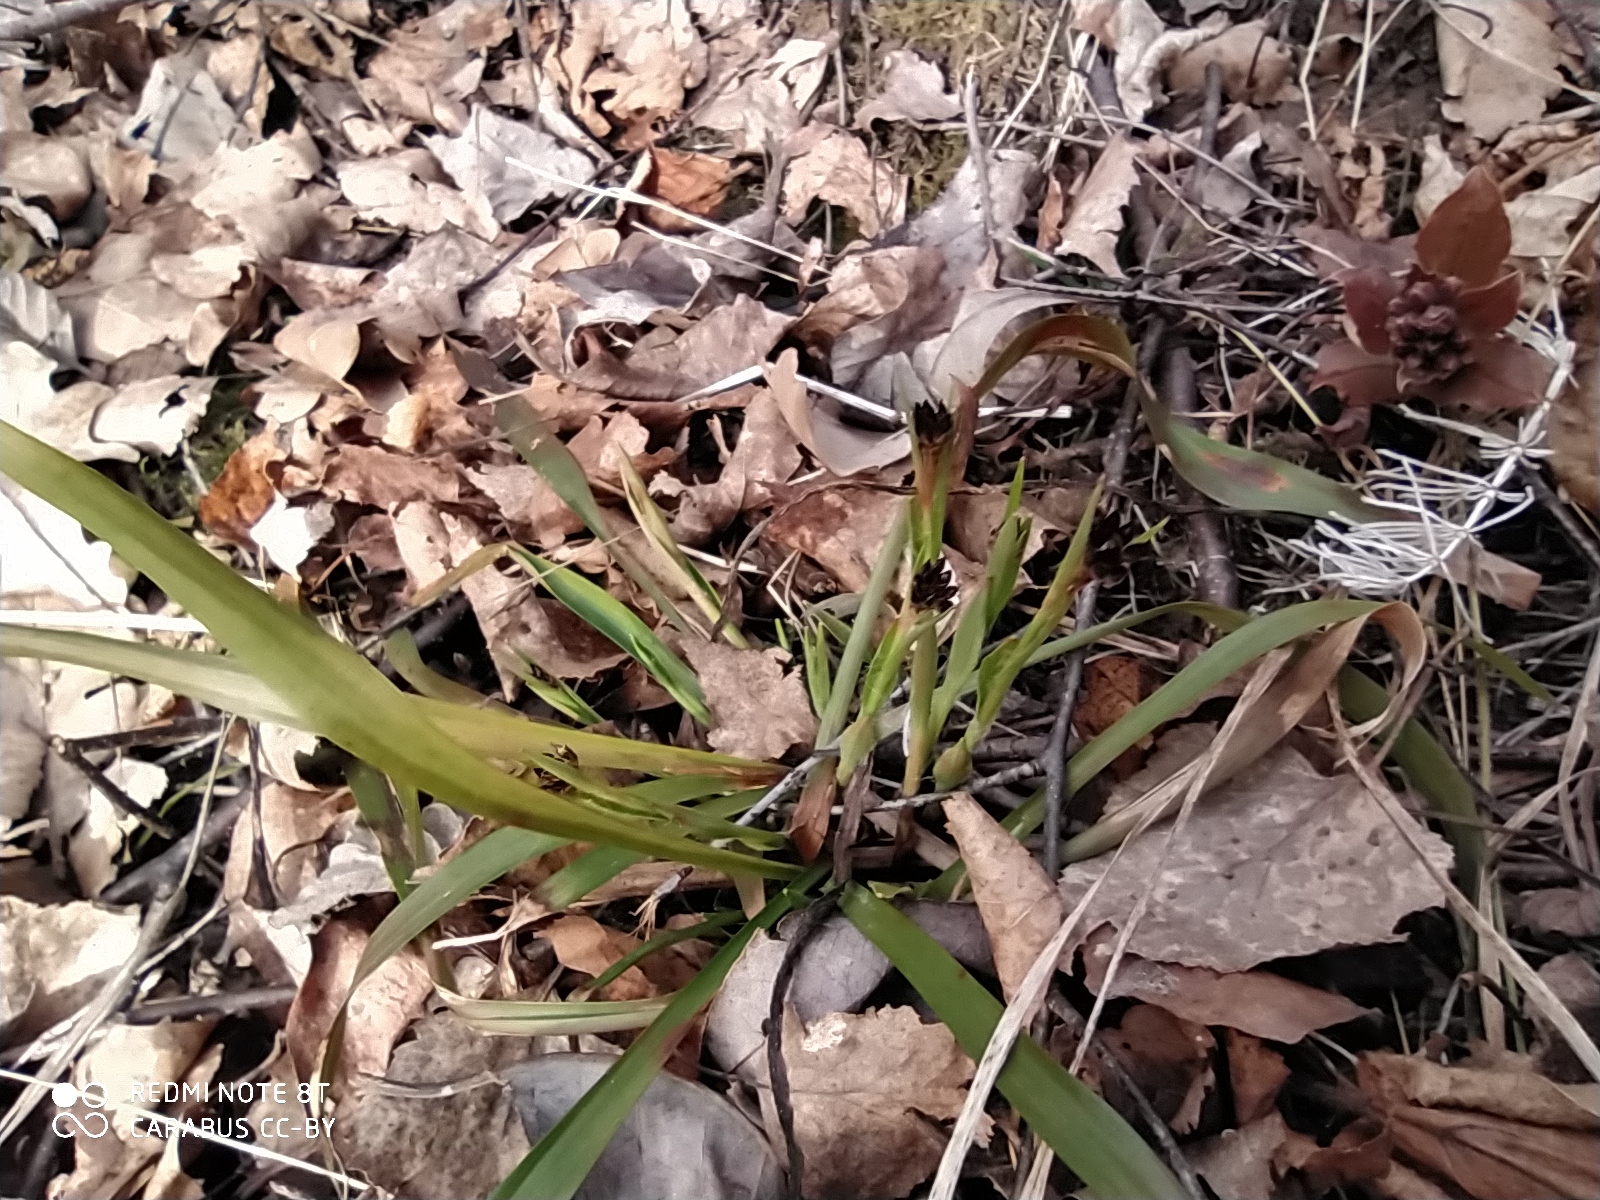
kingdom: Plantae
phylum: Tracheophyta
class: Liliopsida
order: Poales
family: Juncaceae
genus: Luzula
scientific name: Luzula pilosa
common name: Hairy wood-rush
